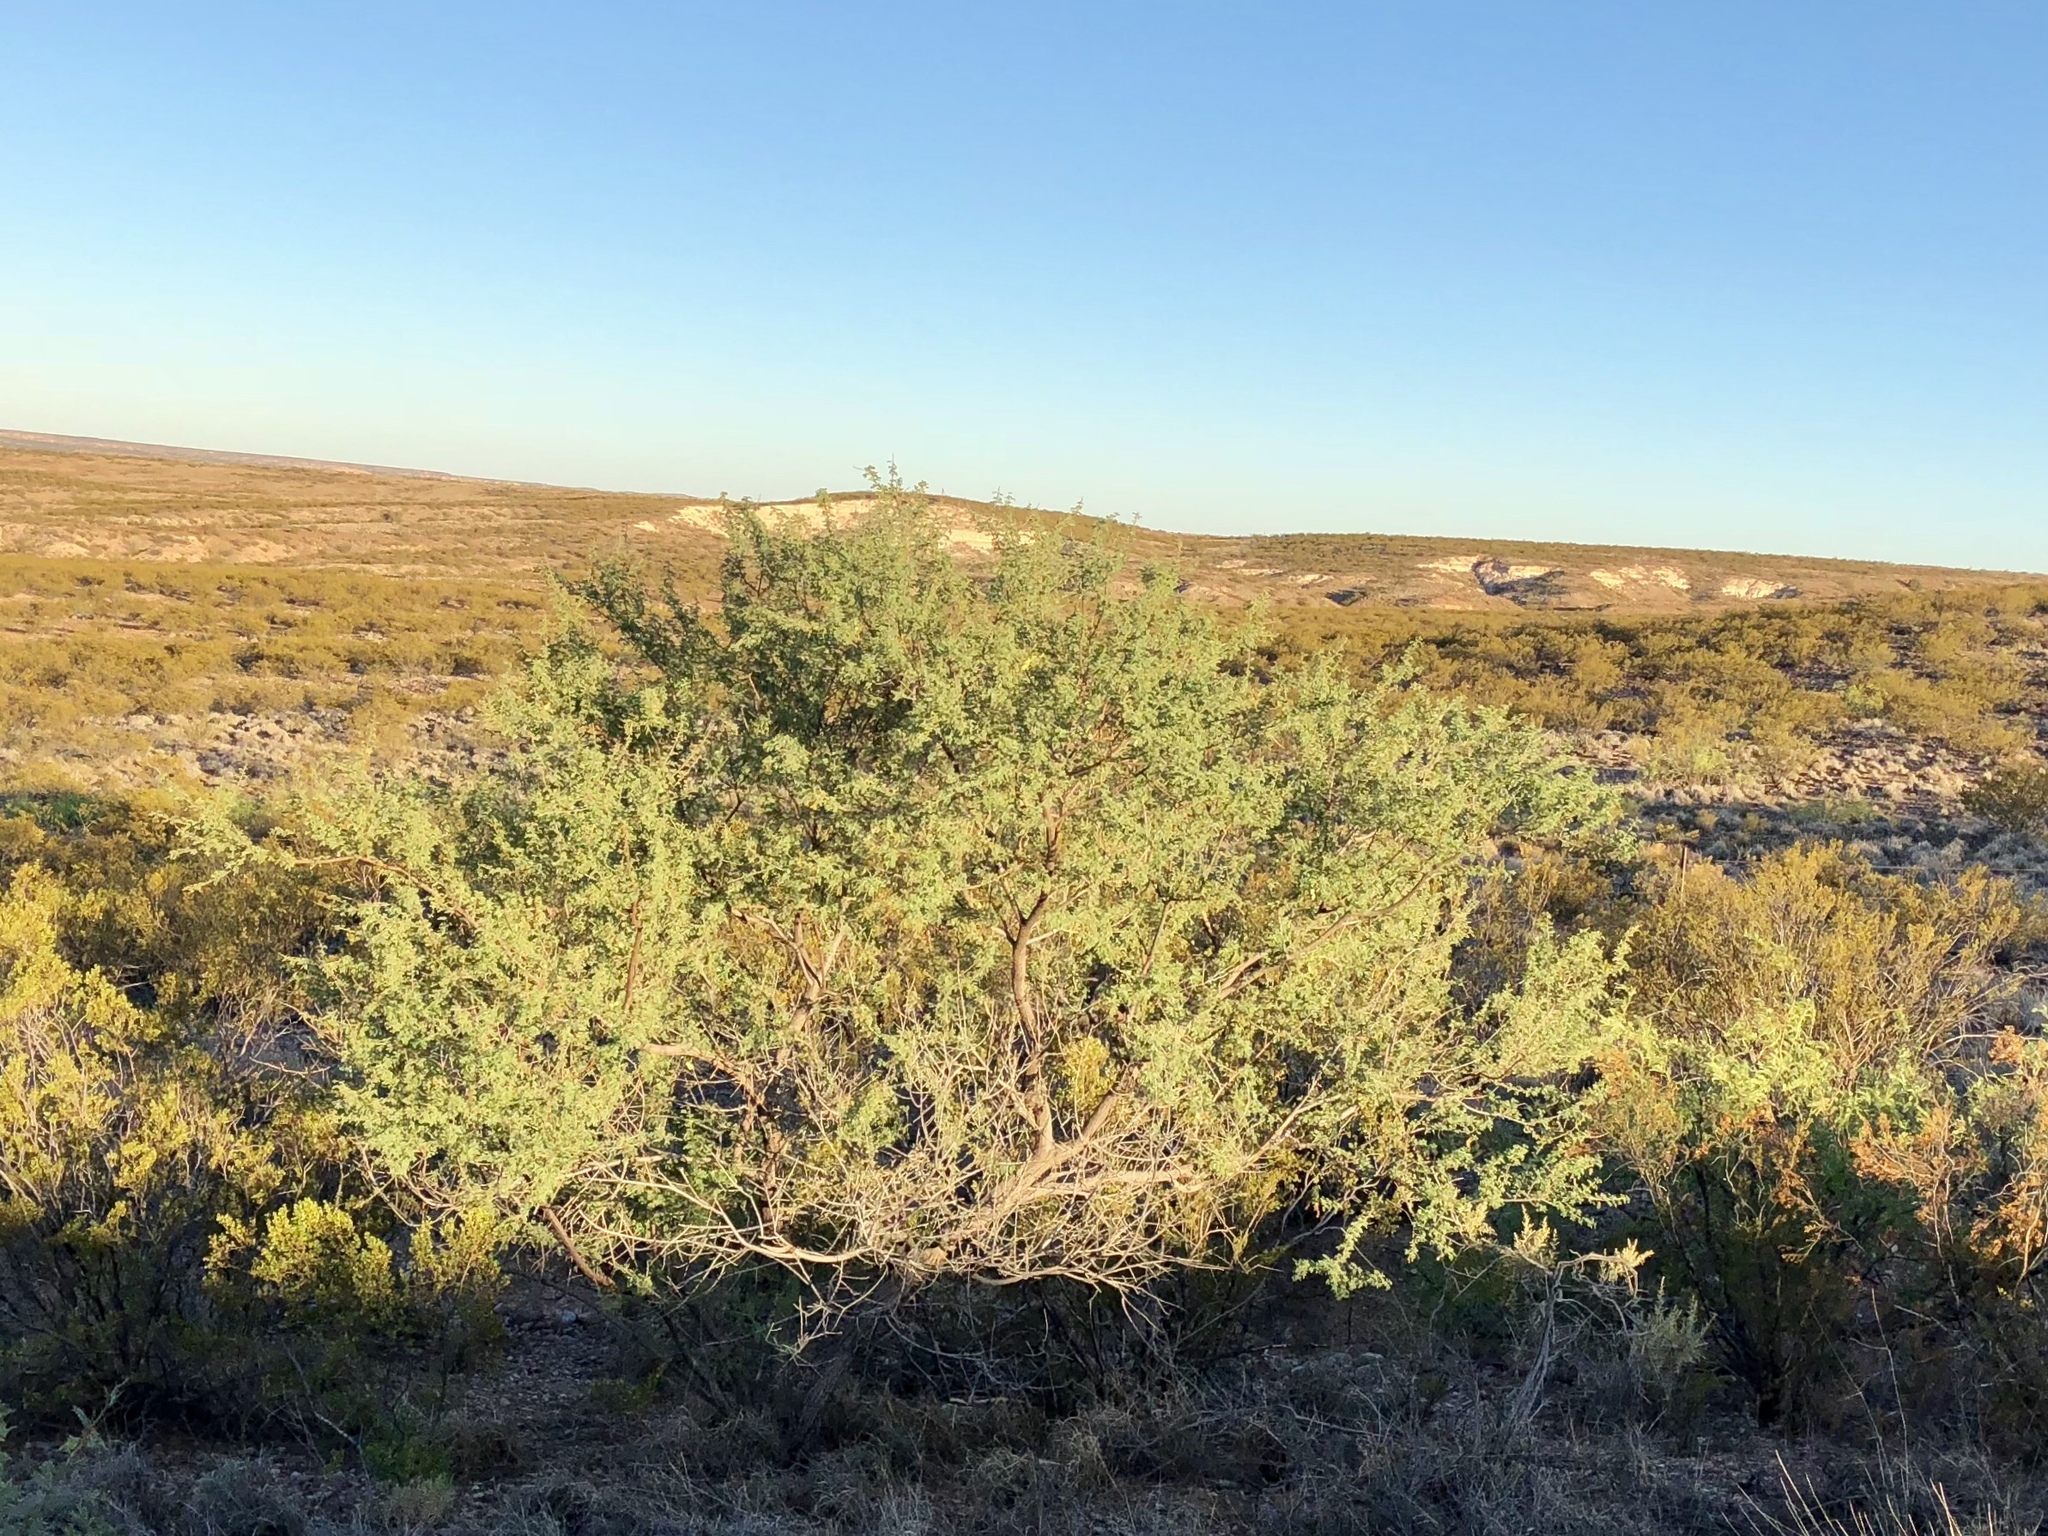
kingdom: Plantae
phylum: Tracheophyta
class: Magnoliopsida
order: Fabales
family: Fabaceae
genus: Senegalia
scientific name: Senegalia greggii
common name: Texas-mimosa
